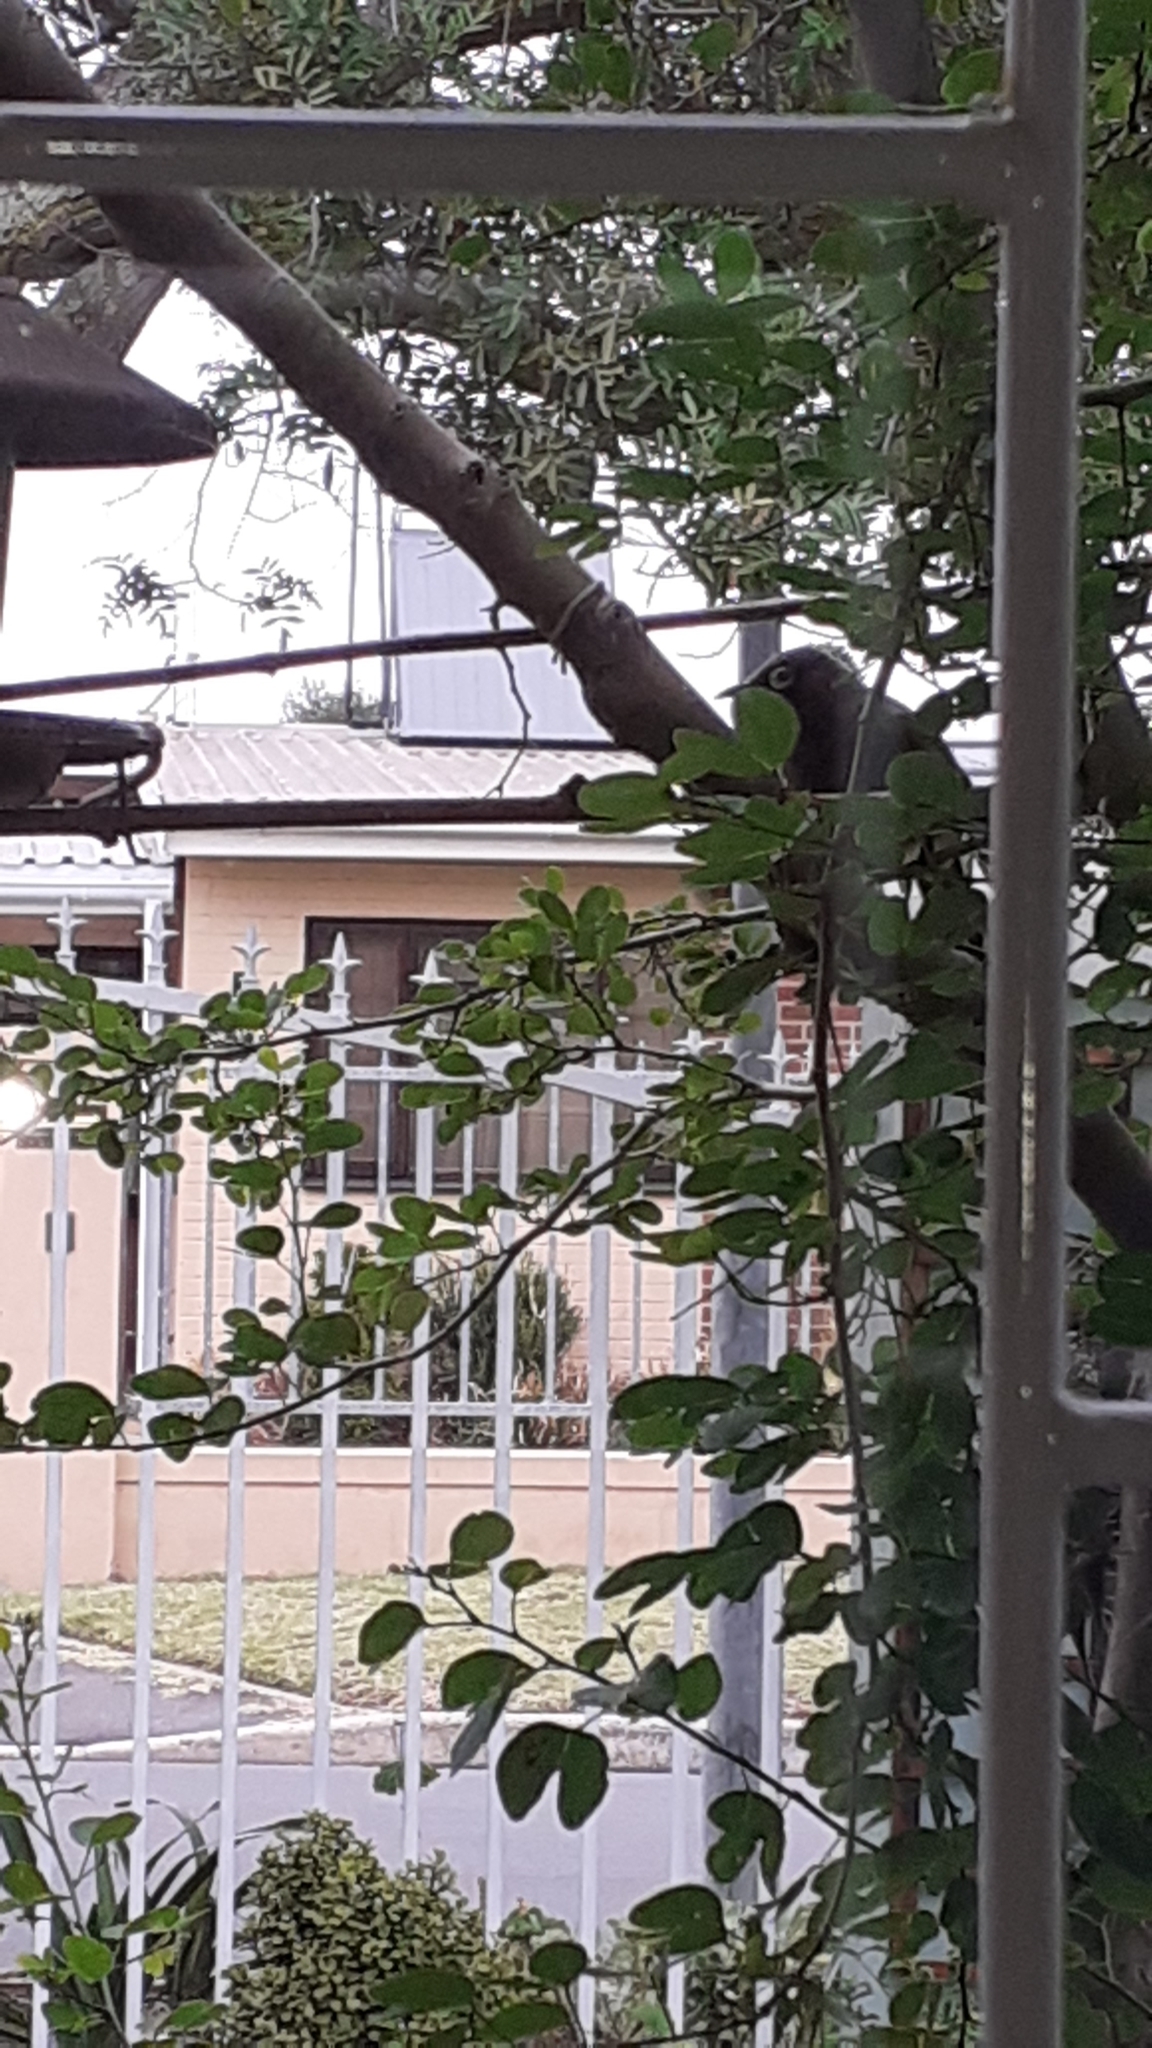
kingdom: Animalia
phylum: Chordata
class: Aves
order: Passeriformes
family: Pycnonotidae
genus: Pycnonotus
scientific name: Pycnonotus capensis
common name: Cape bulbul
